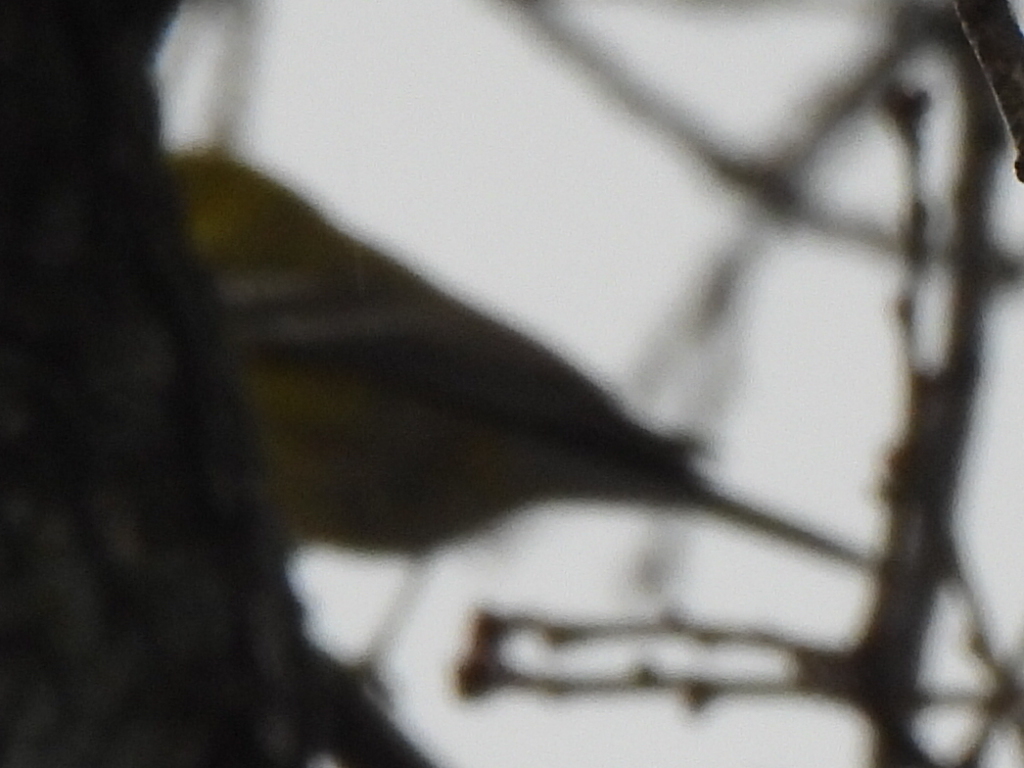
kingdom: Animalia
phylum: Chordata
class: Aves
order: Passeriformes
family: Parulidae
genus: Setophaga
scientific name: Setophaga pinus
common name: Pine warbler
